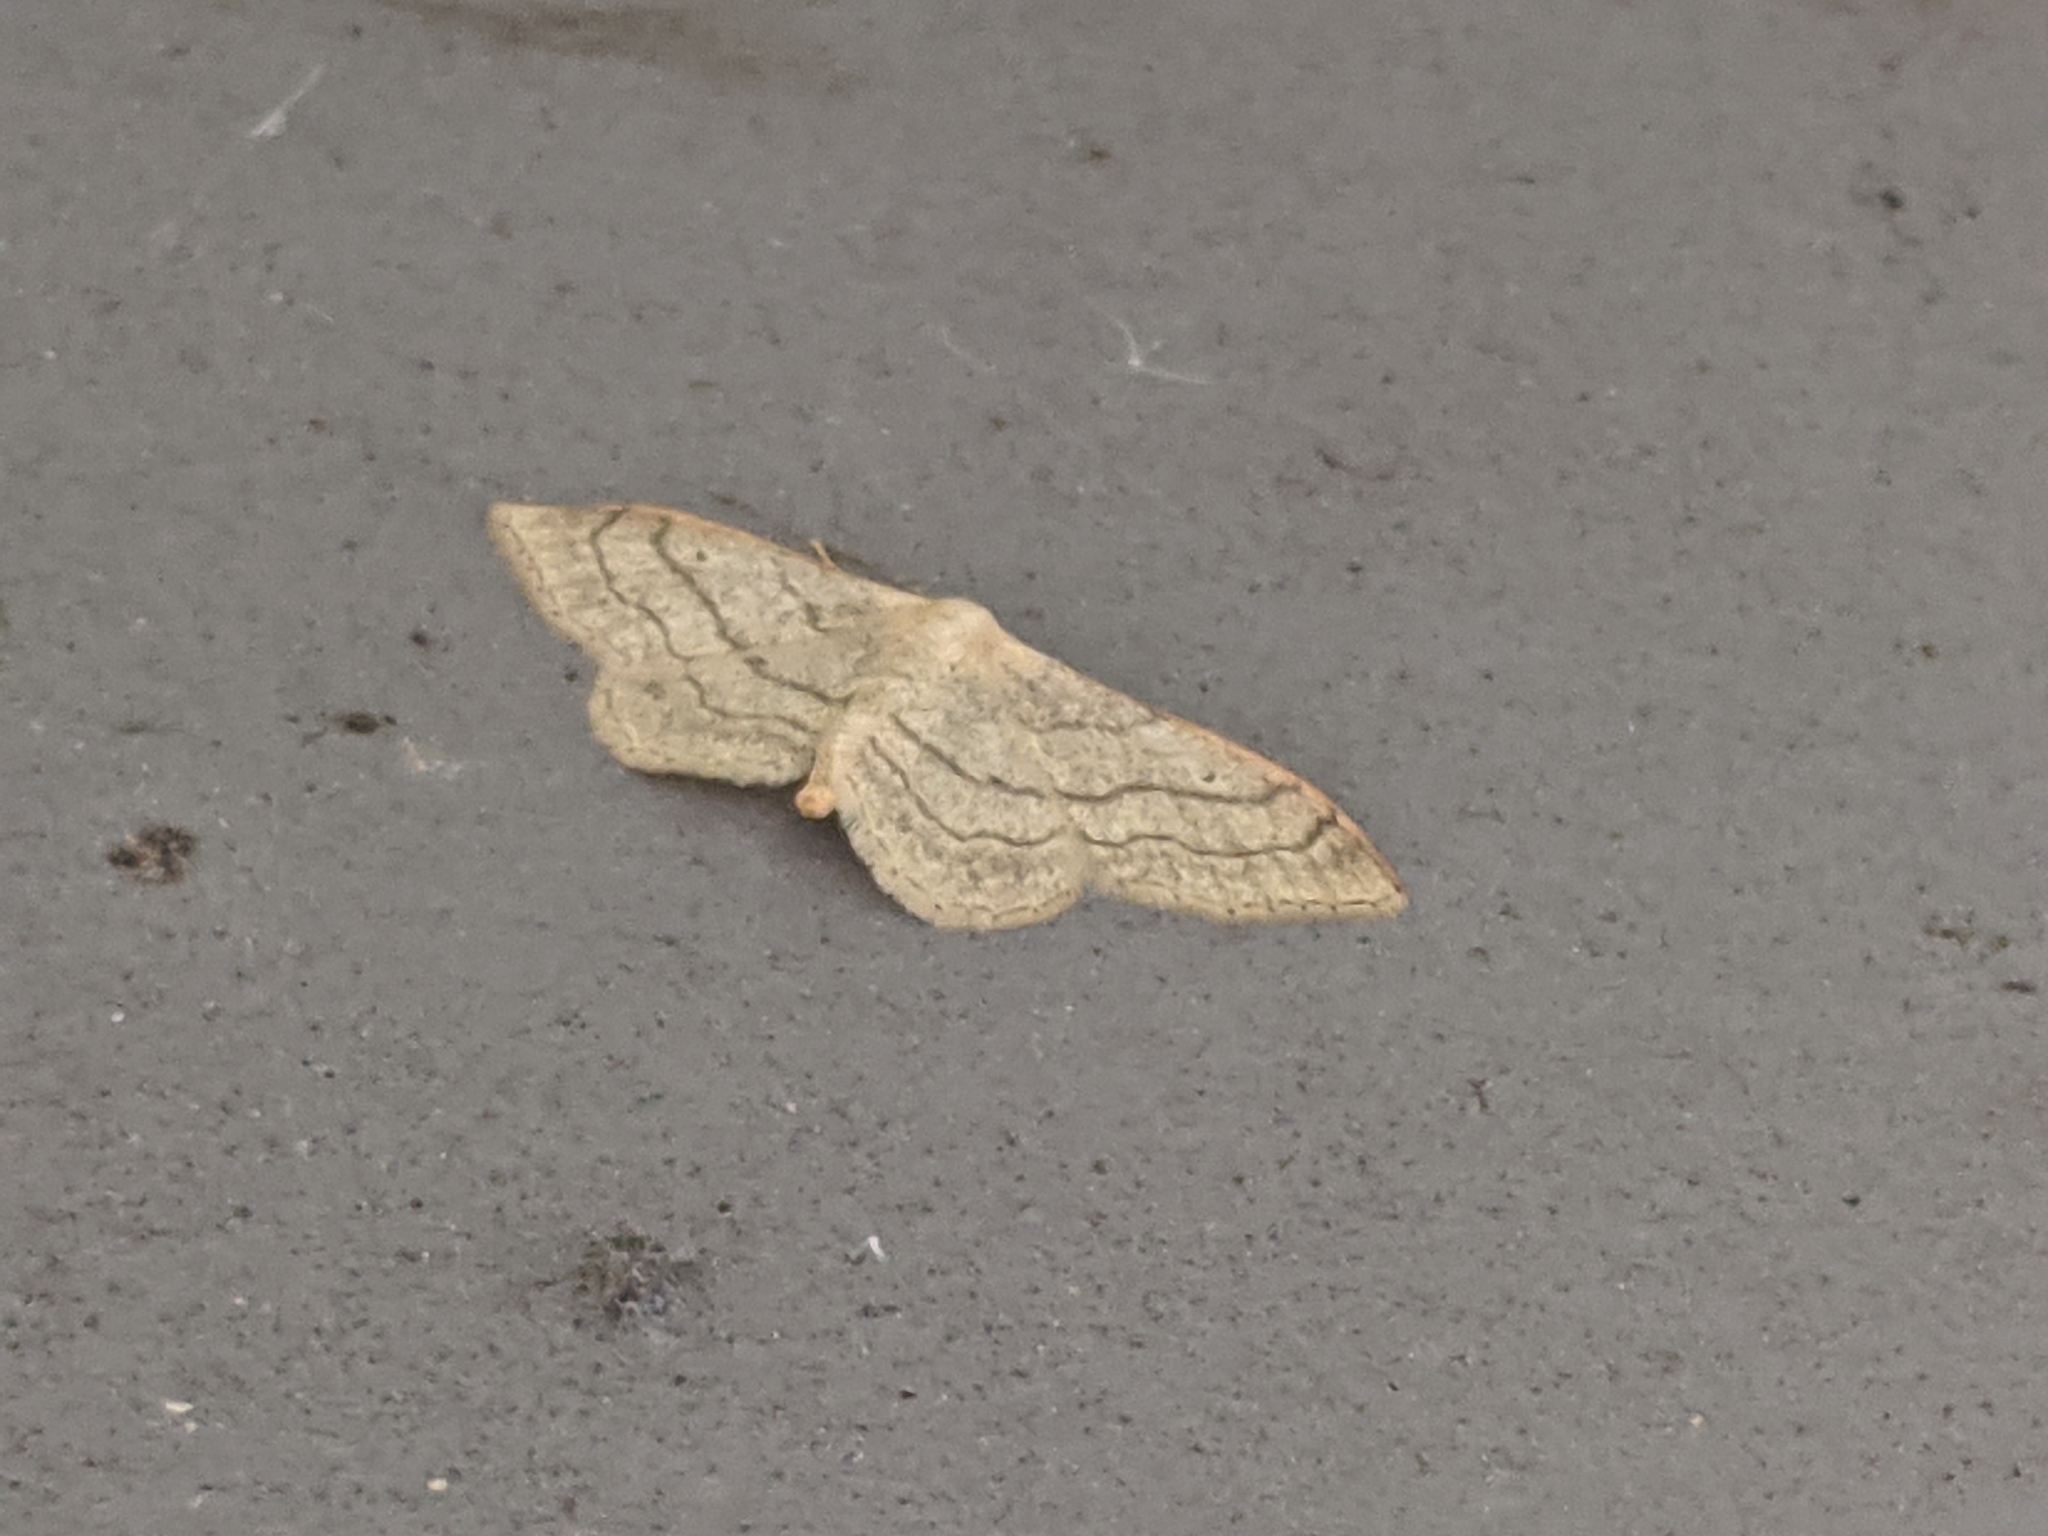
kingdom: Animalia
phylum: Arthropoda
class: Insecta
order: Lepidoptera
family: Geometridae
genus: Idaea
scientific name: Idaea aversata
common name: Riband wave
